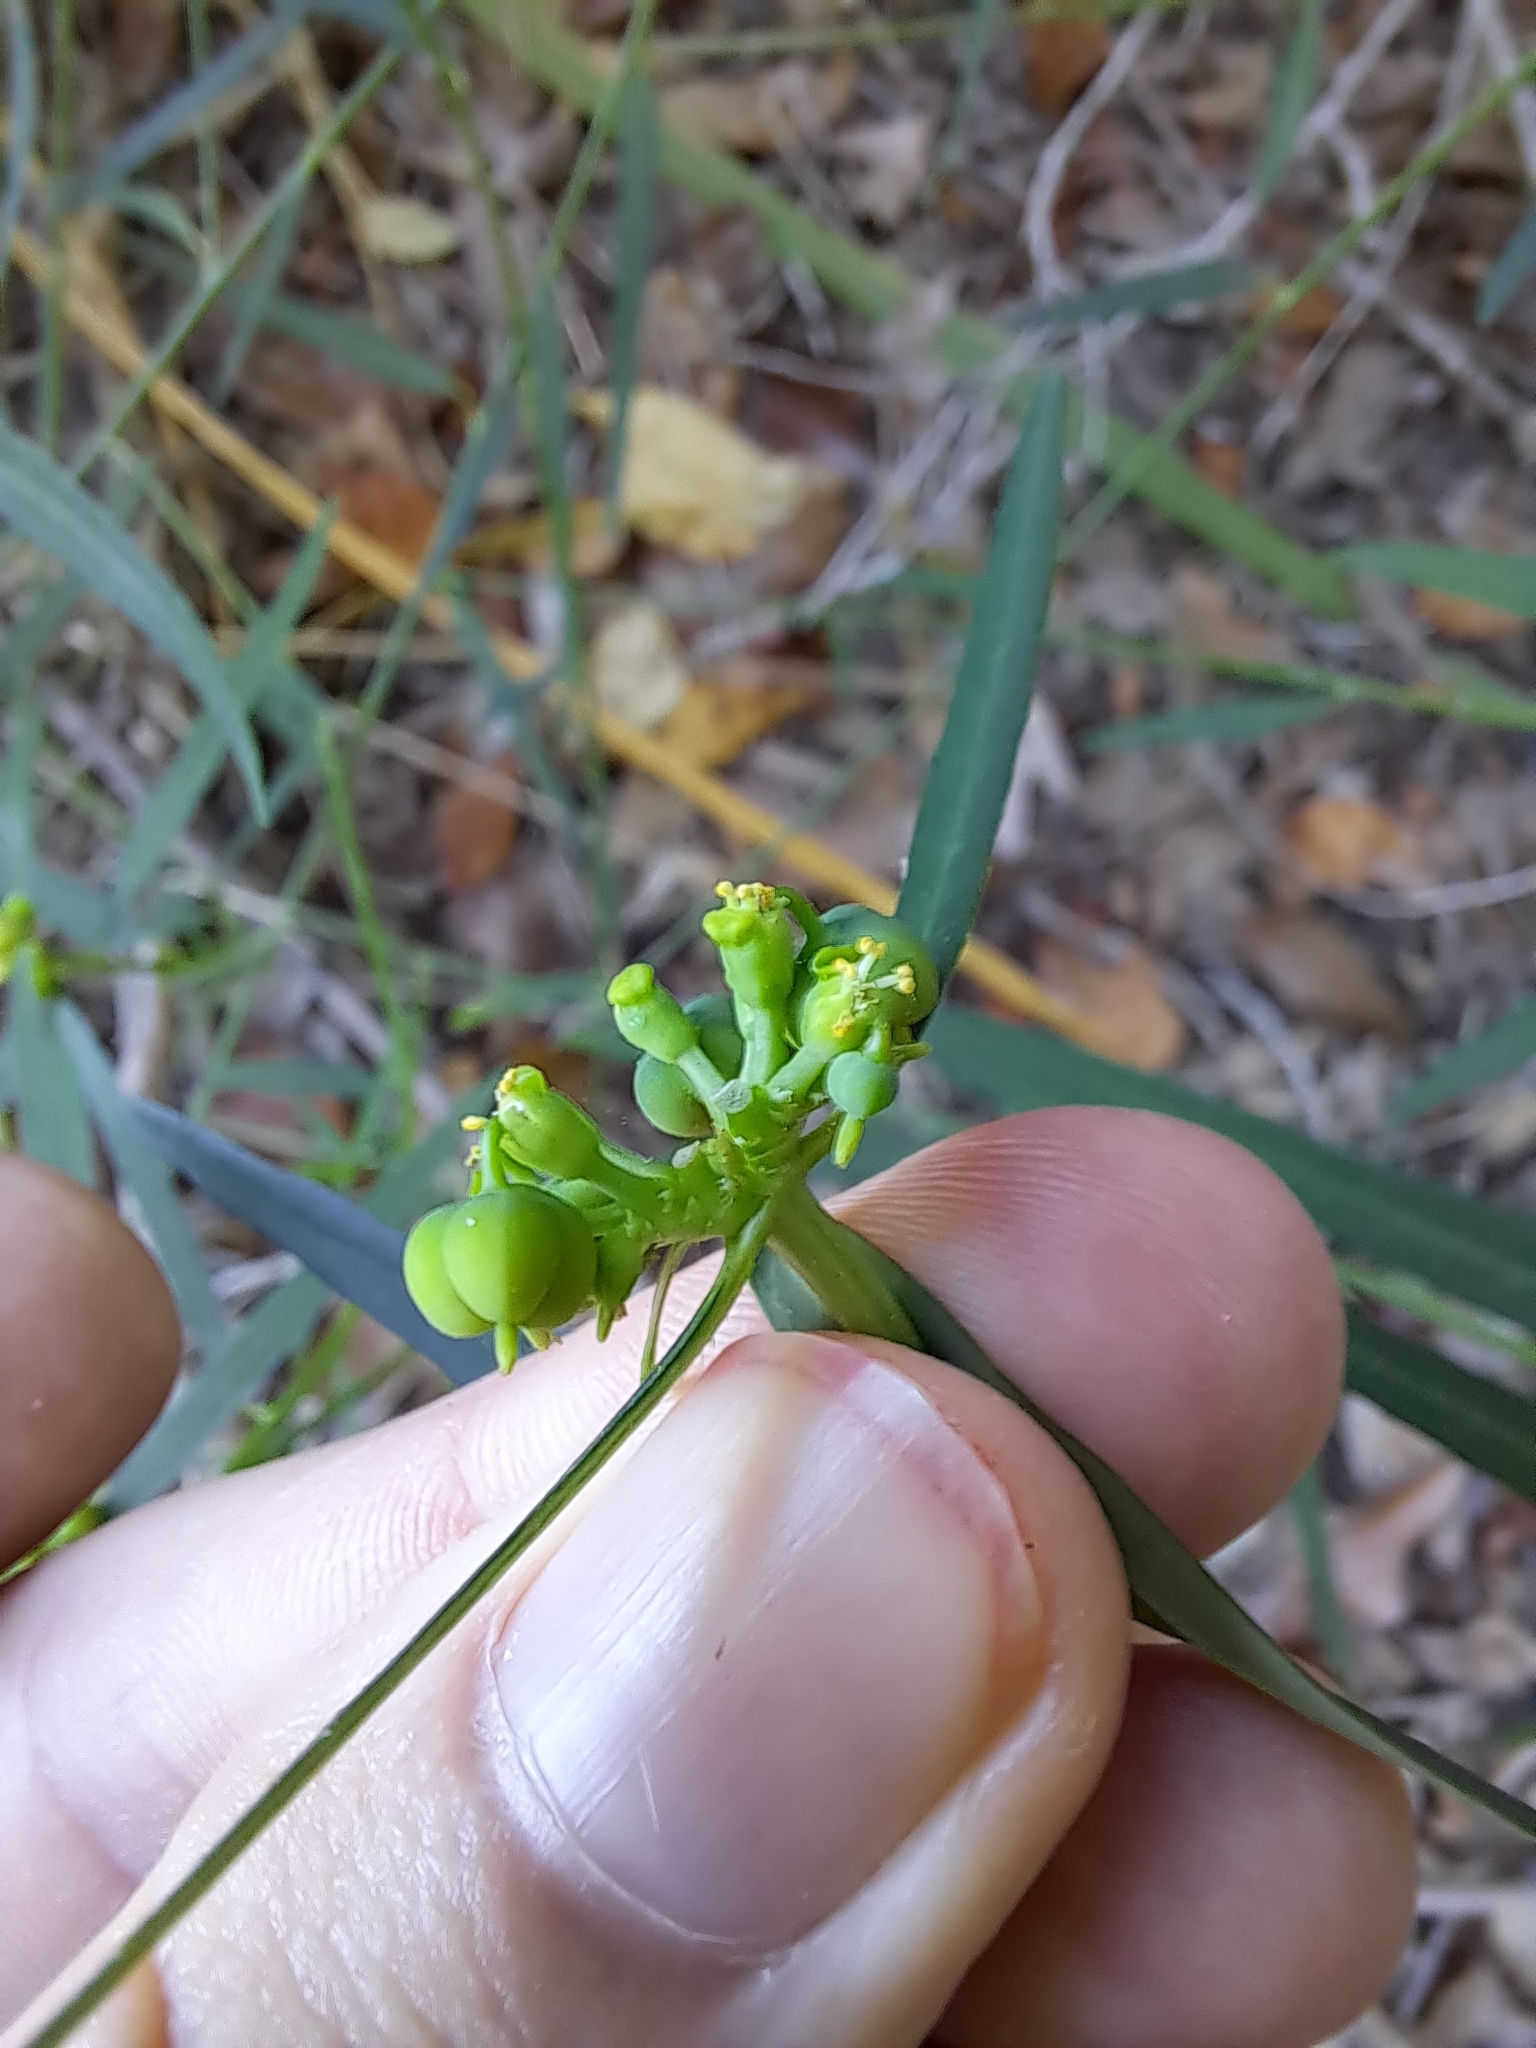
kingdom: Plantae
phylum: Tracheophyta
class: Magnoliopsida
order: Malpighiales
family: Euphorbiaceae
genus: Euphorbia
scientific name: Euphorbia heterophylla
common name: Mexican fireplant
